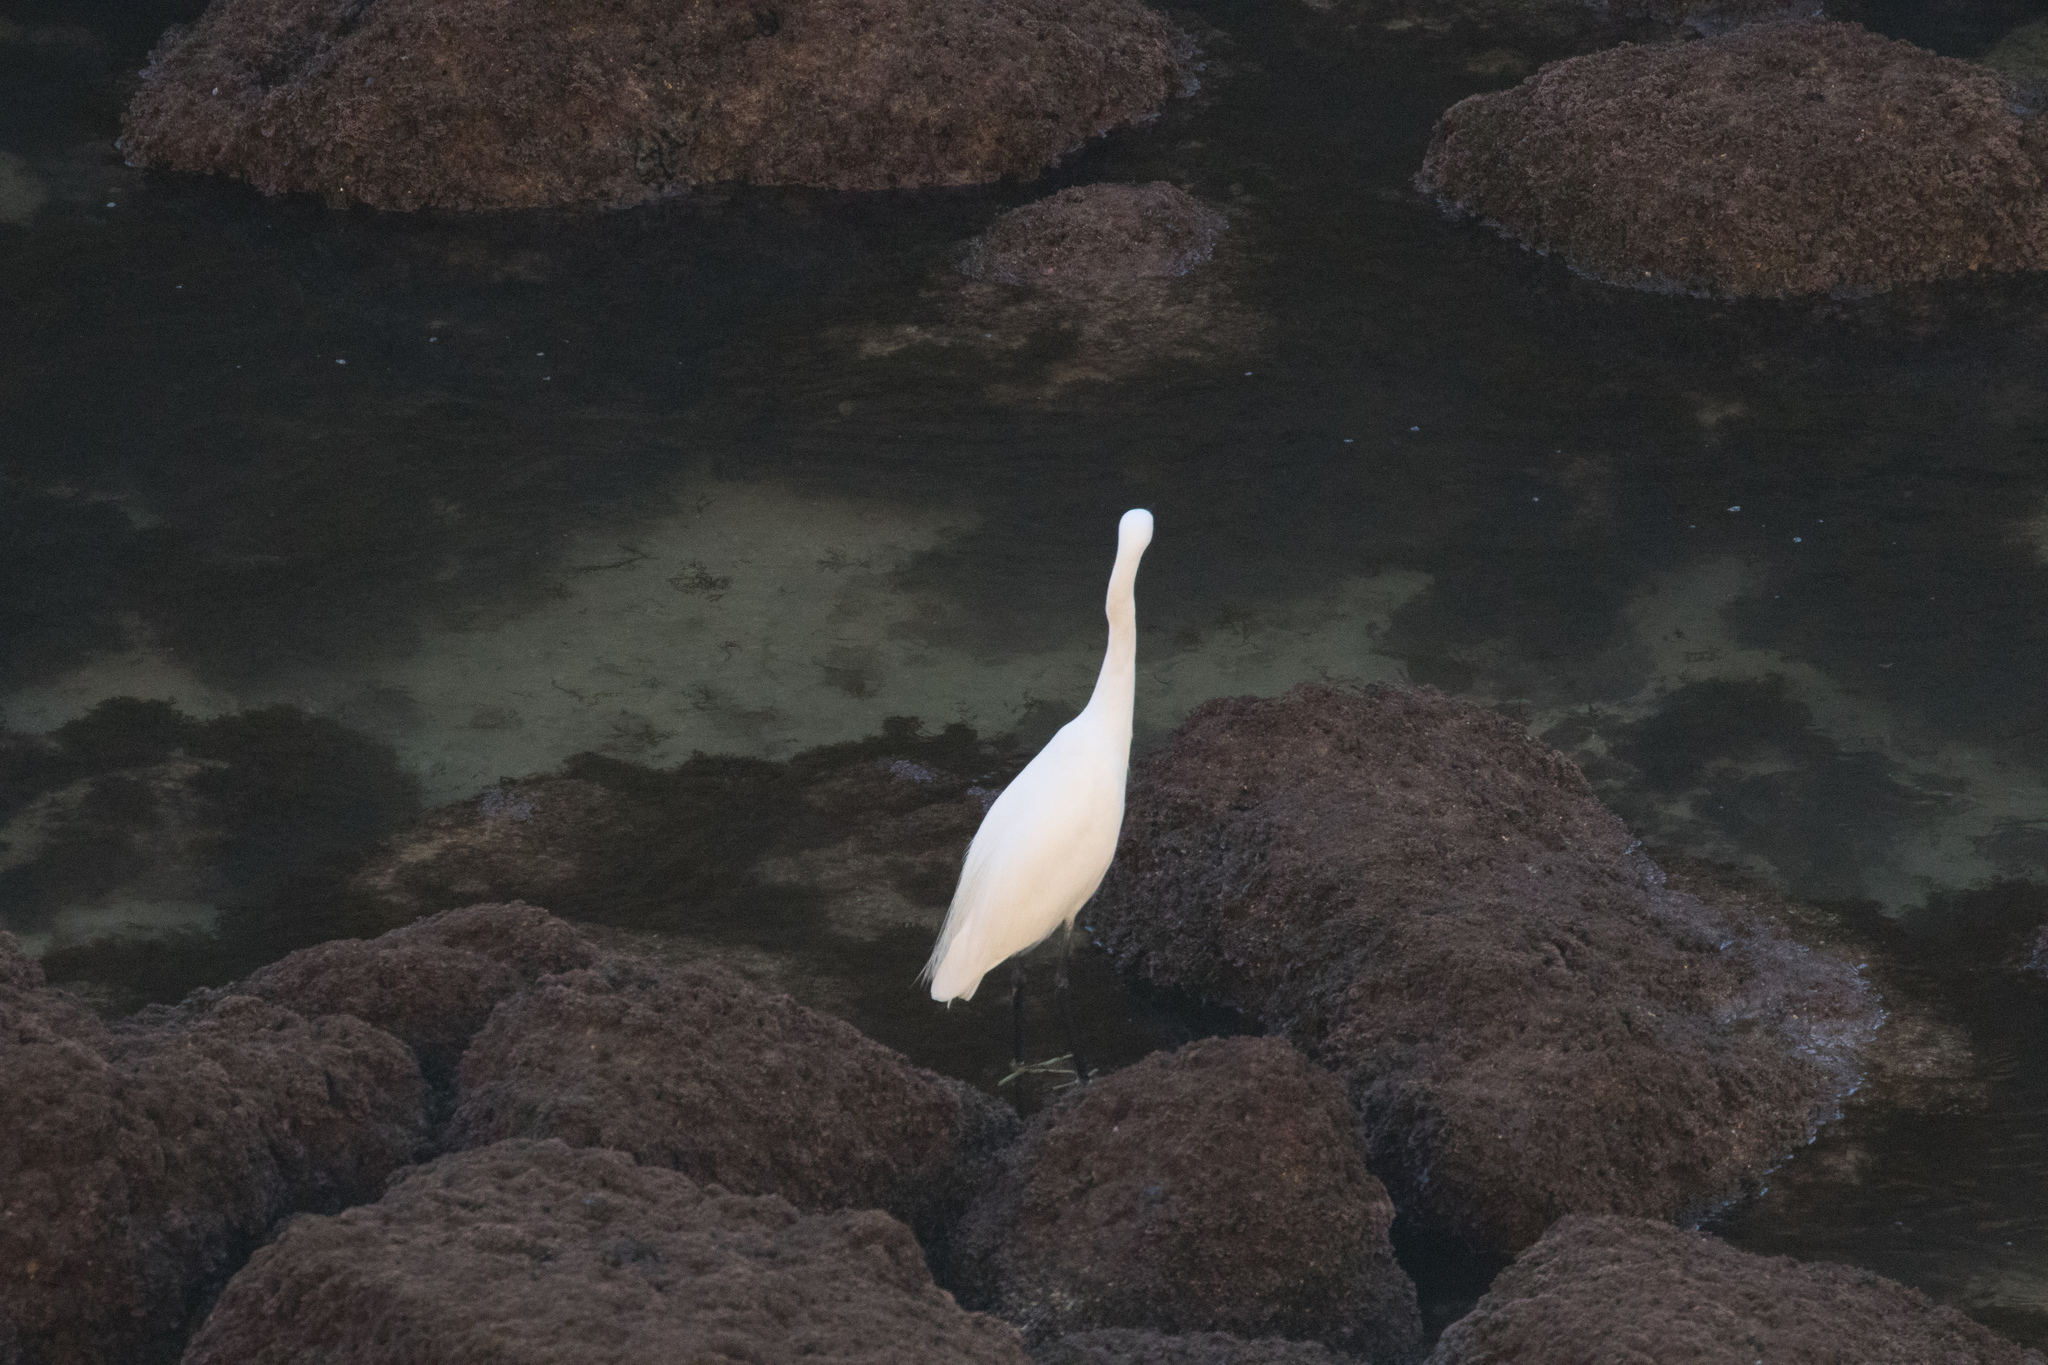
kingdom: Animalia
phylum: Chordata
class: Aves
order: Pelecaniformes
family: Ardeidae
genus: Egretta
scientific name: Egretta garzetta
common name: Little egret
